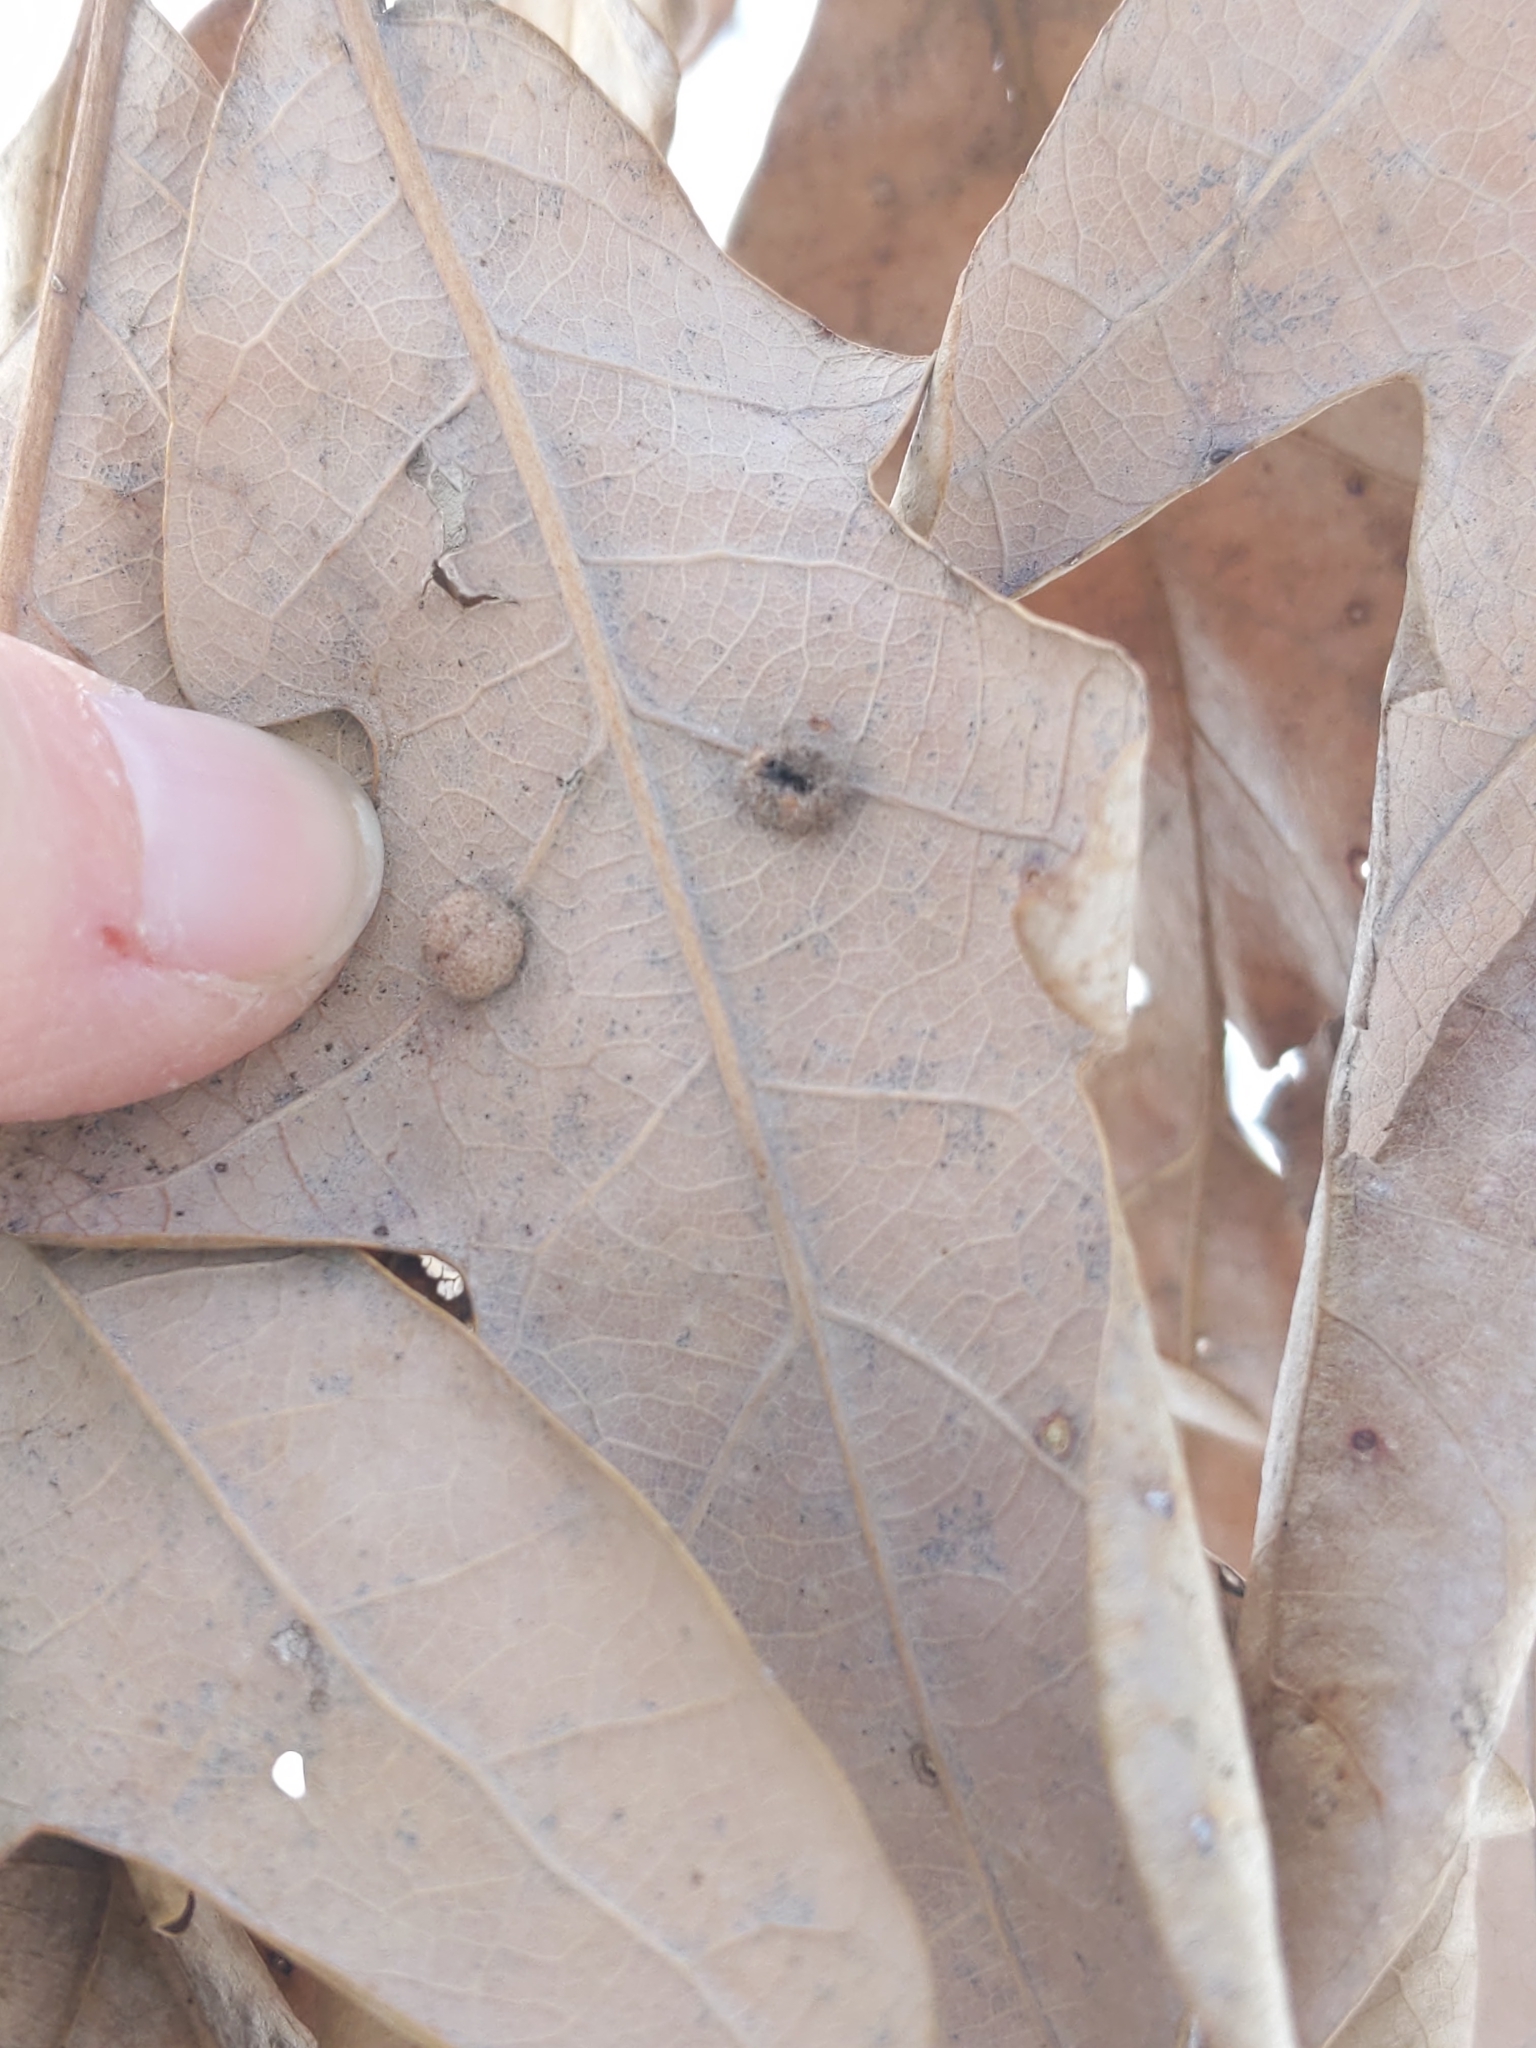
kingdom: Animalia
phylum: Arthropoda
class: Insecta
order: Hymenoptera
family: Cynipidae
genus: Philonix
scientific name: Philonix fulvicollis
